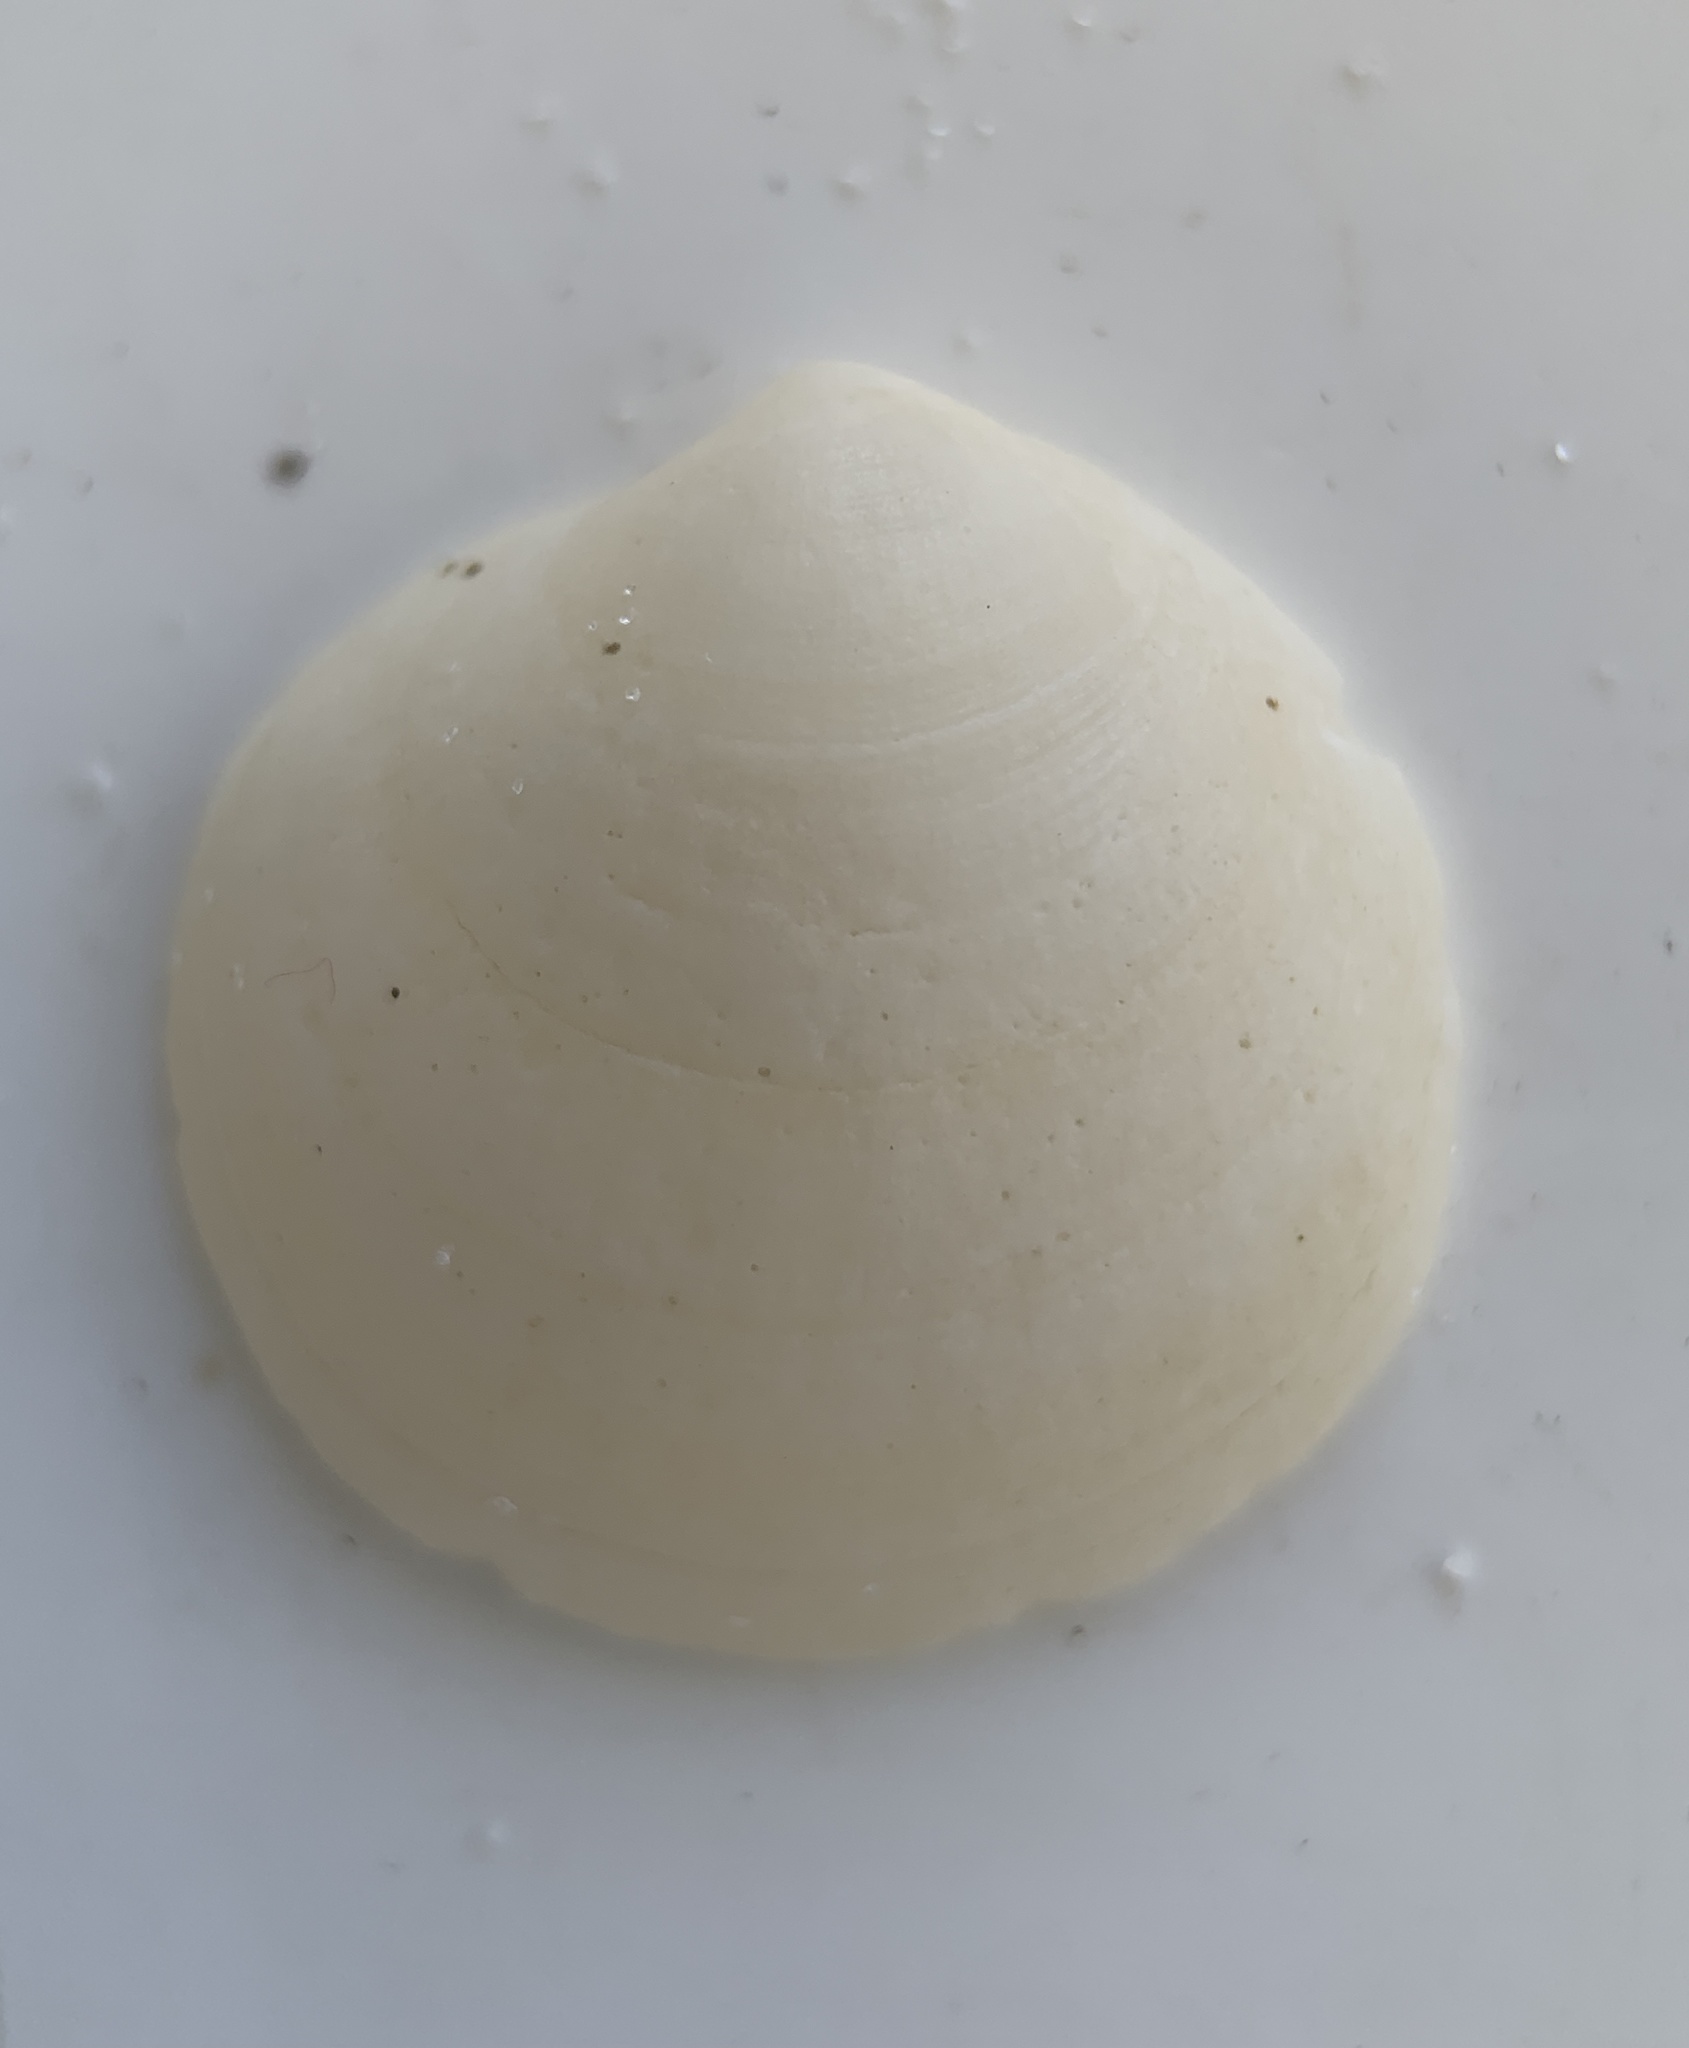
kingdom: Animalia
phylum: Mollusca
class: Bivalvia
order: Lucinida
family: Lucinidae
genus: Callucina
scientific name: Callucina keenae
